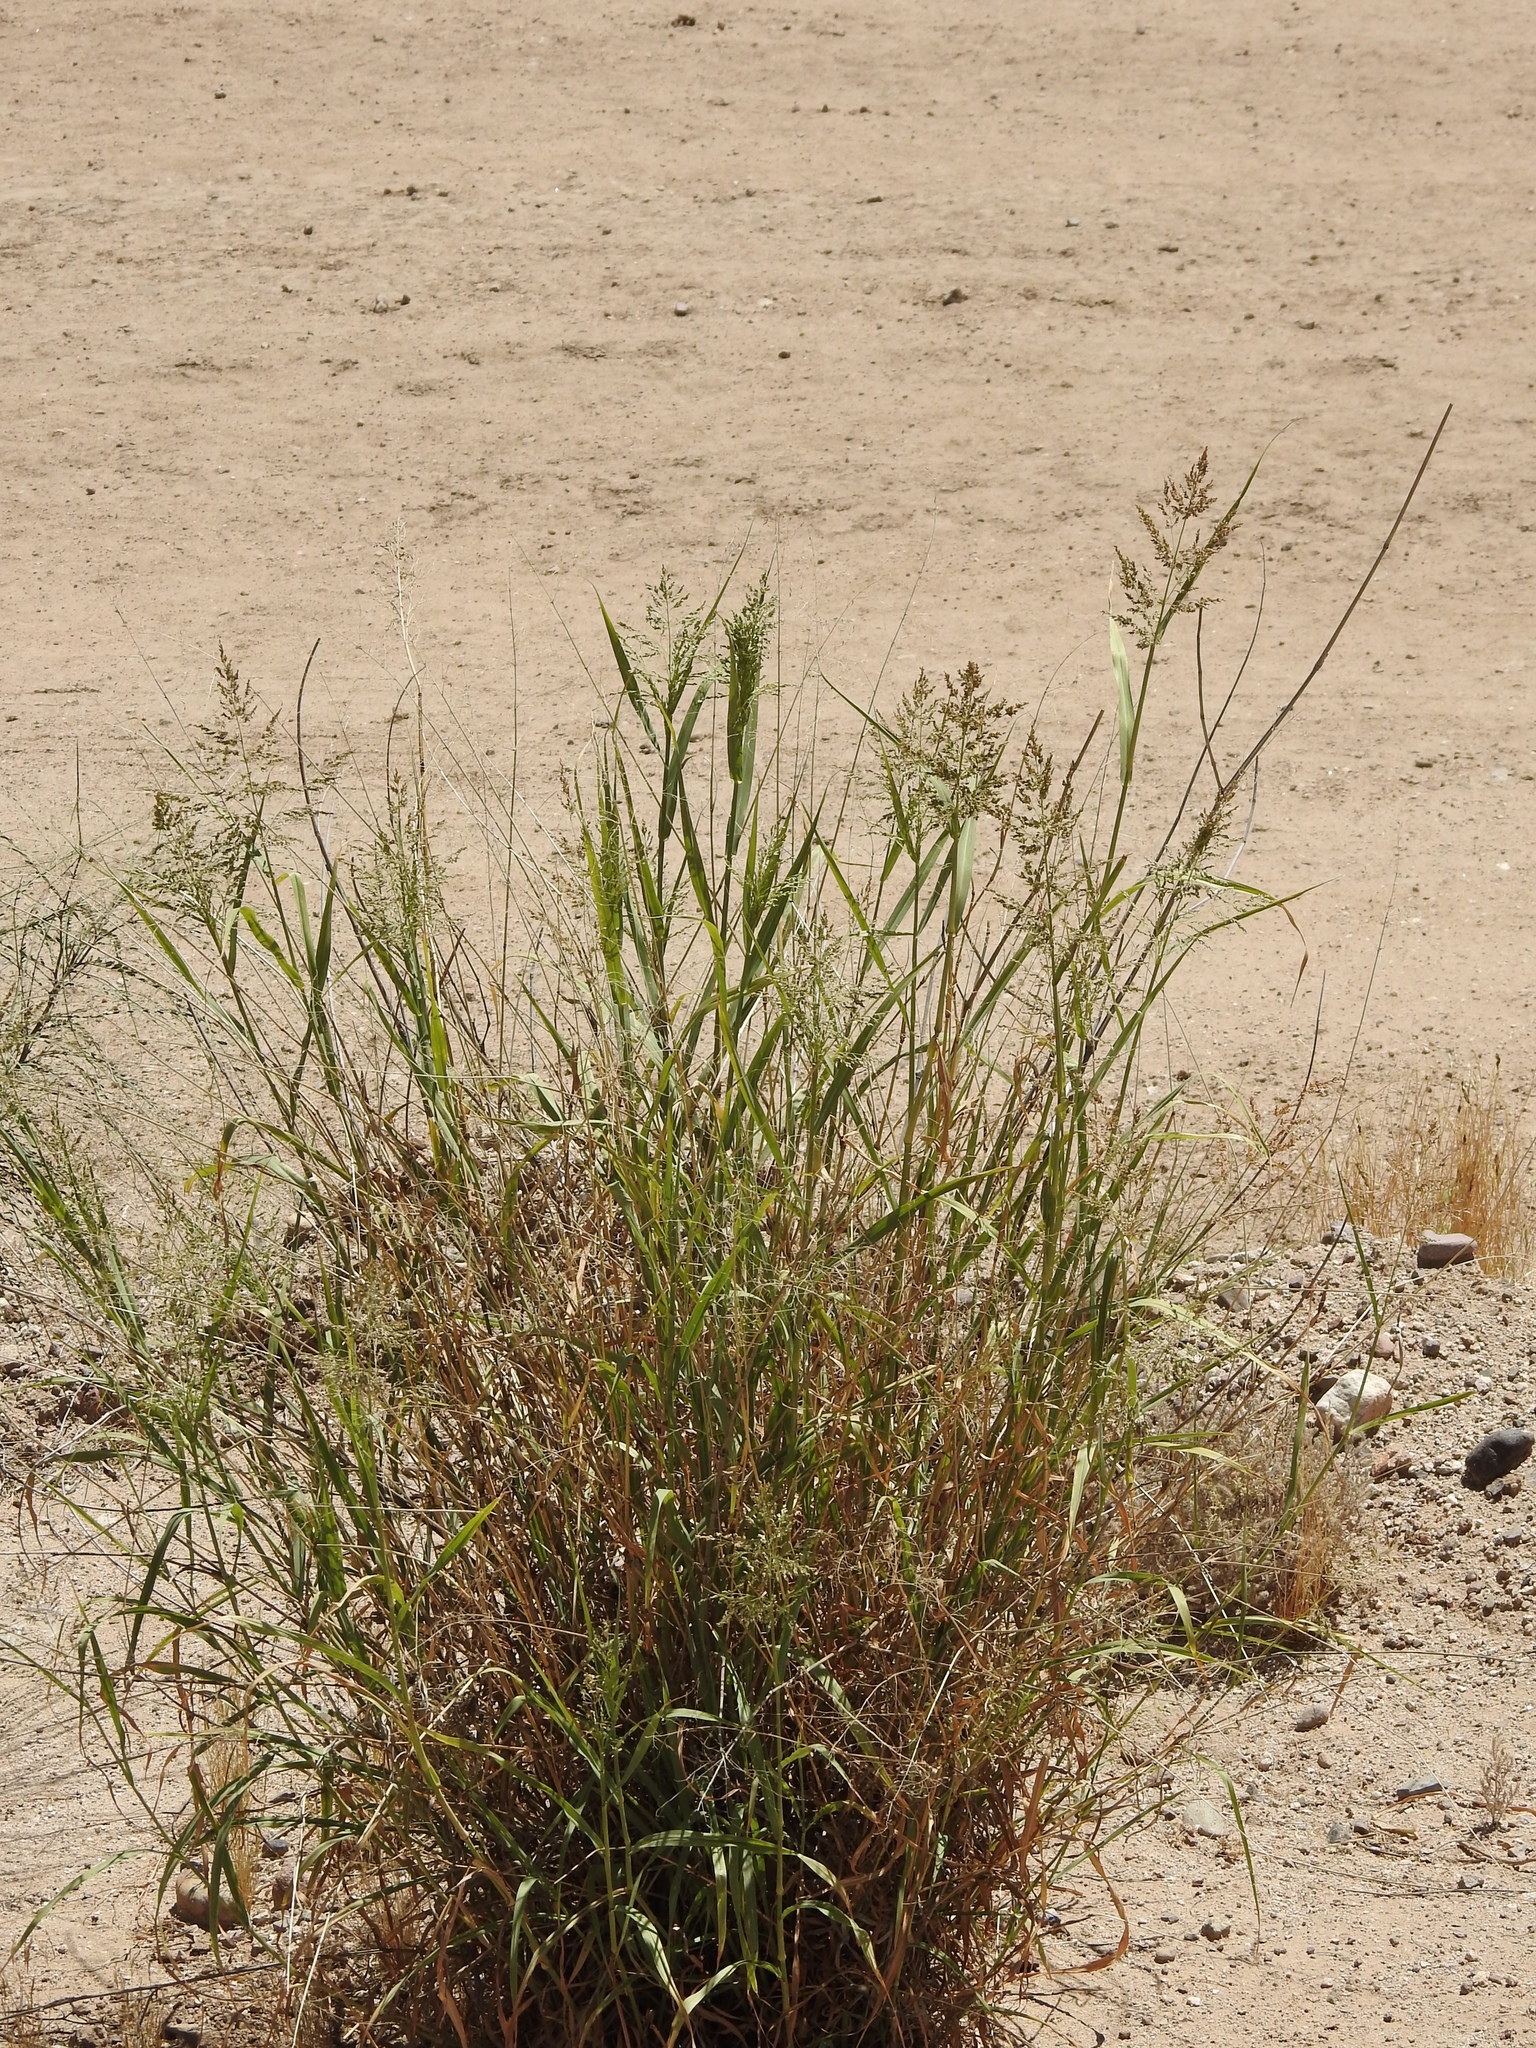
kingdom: Plantae
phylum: Tracheophyta
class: Liliopsida
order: Poales
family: Poaceae
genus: Sorghum
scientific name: Sorghum halepense
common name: Johnson-grass
